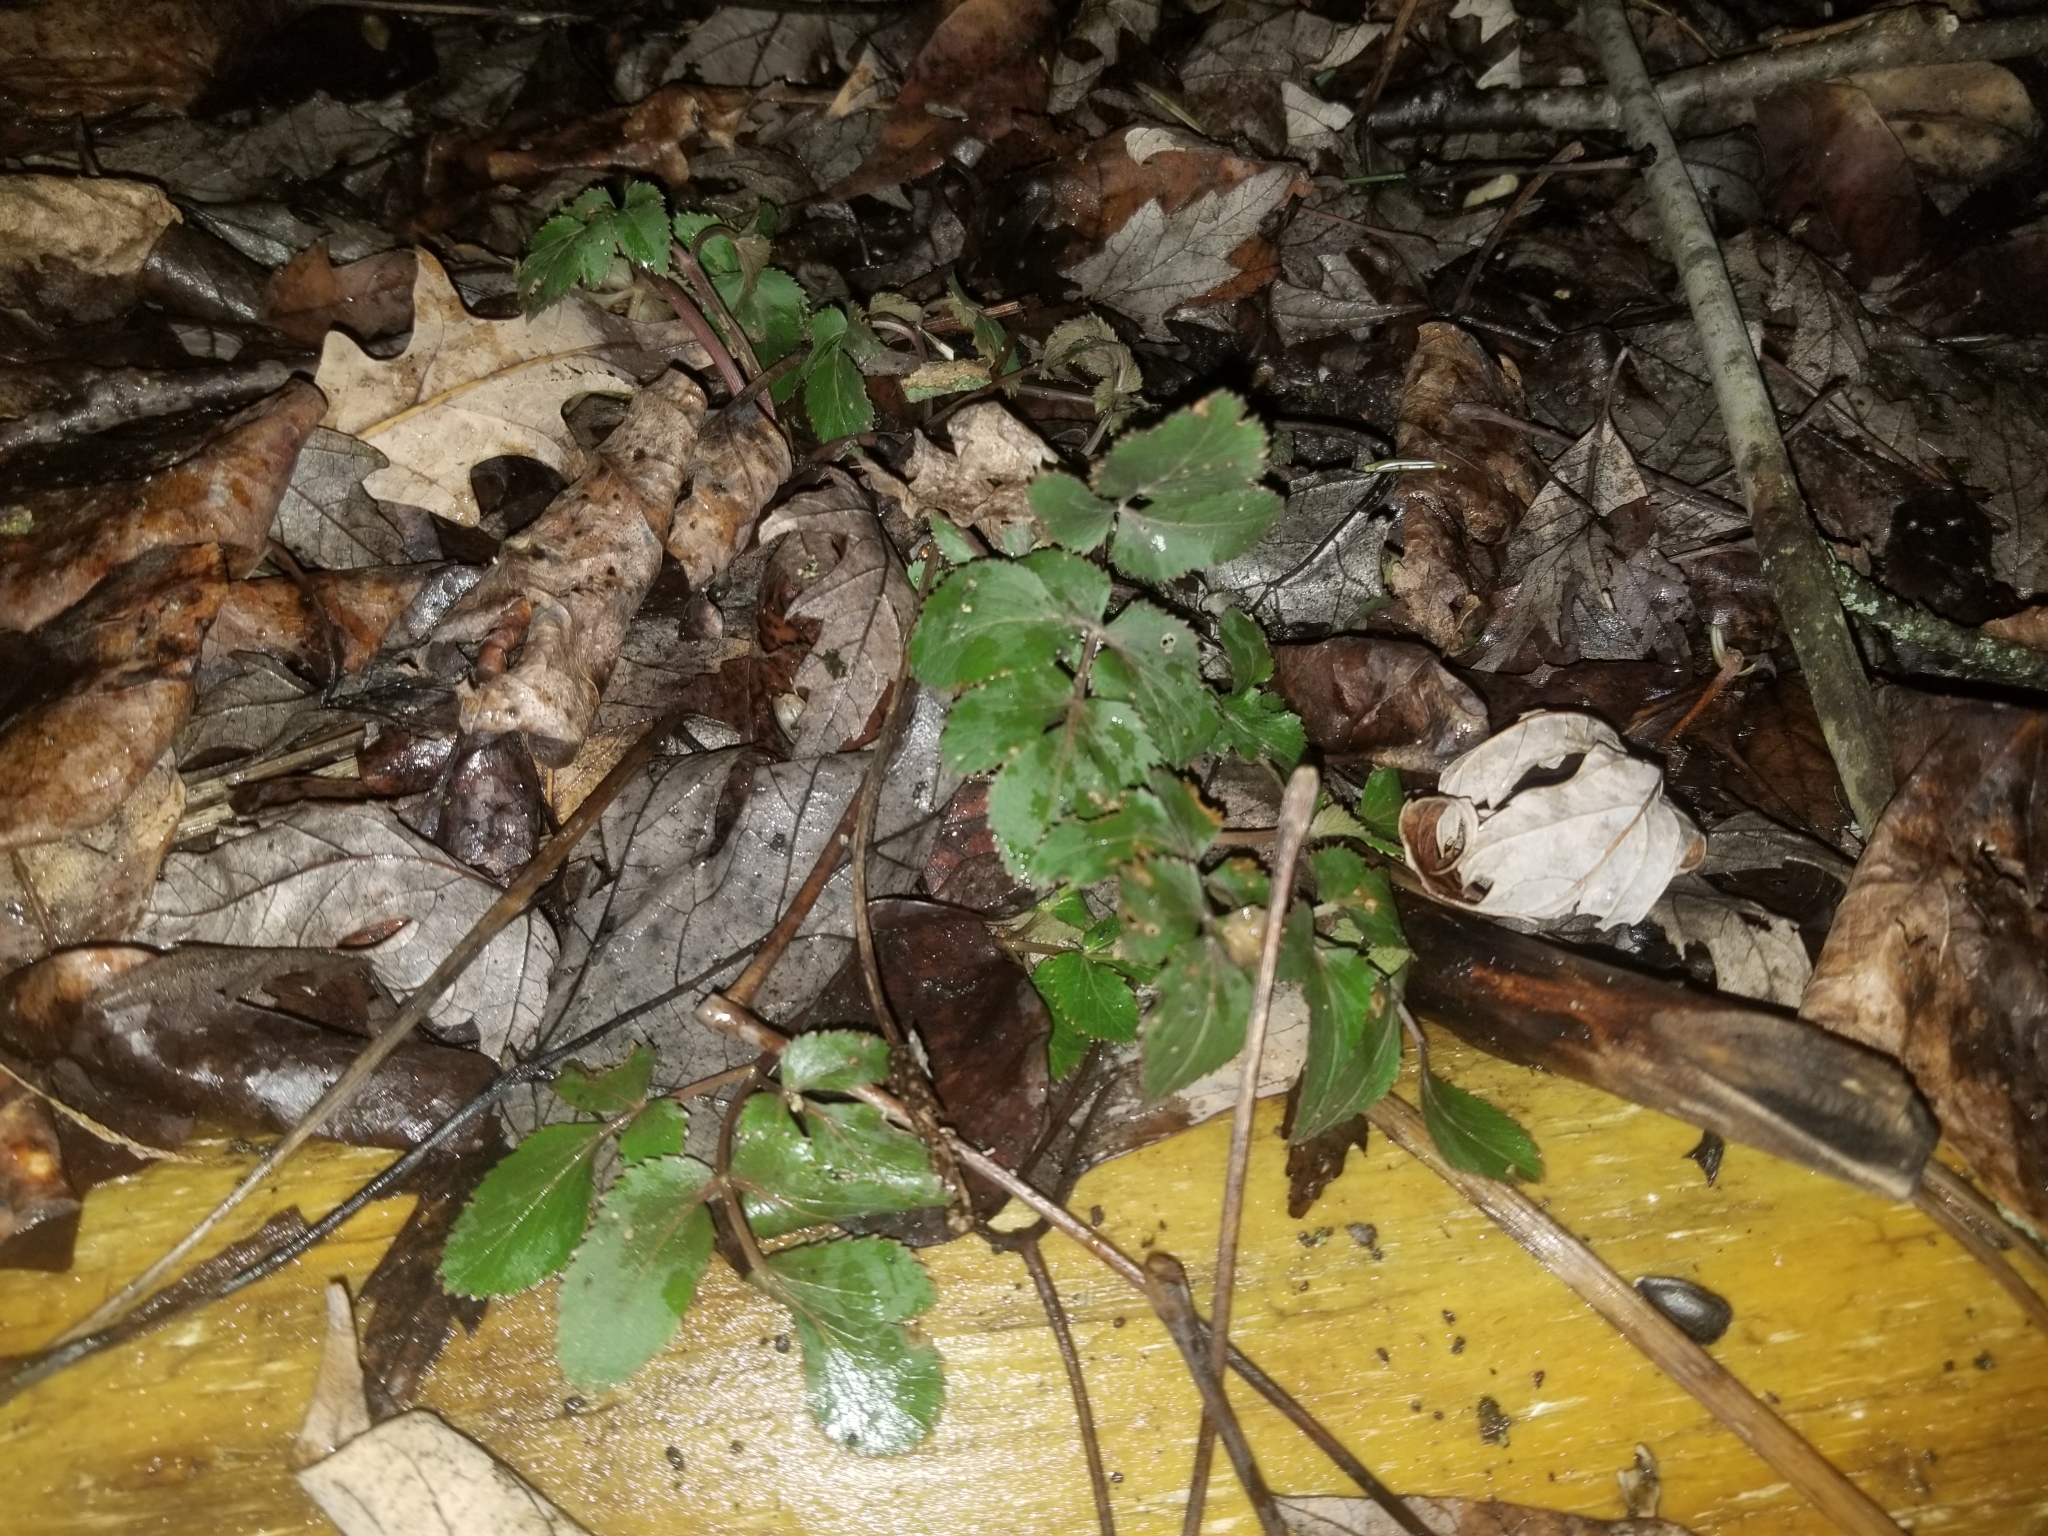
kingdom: Plantae
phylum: Tracheophyta
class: Magnoliopsida
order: Apiales
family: Apiaceae
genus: Zizia
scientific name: Zizia aurea
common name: Golden alexanders
